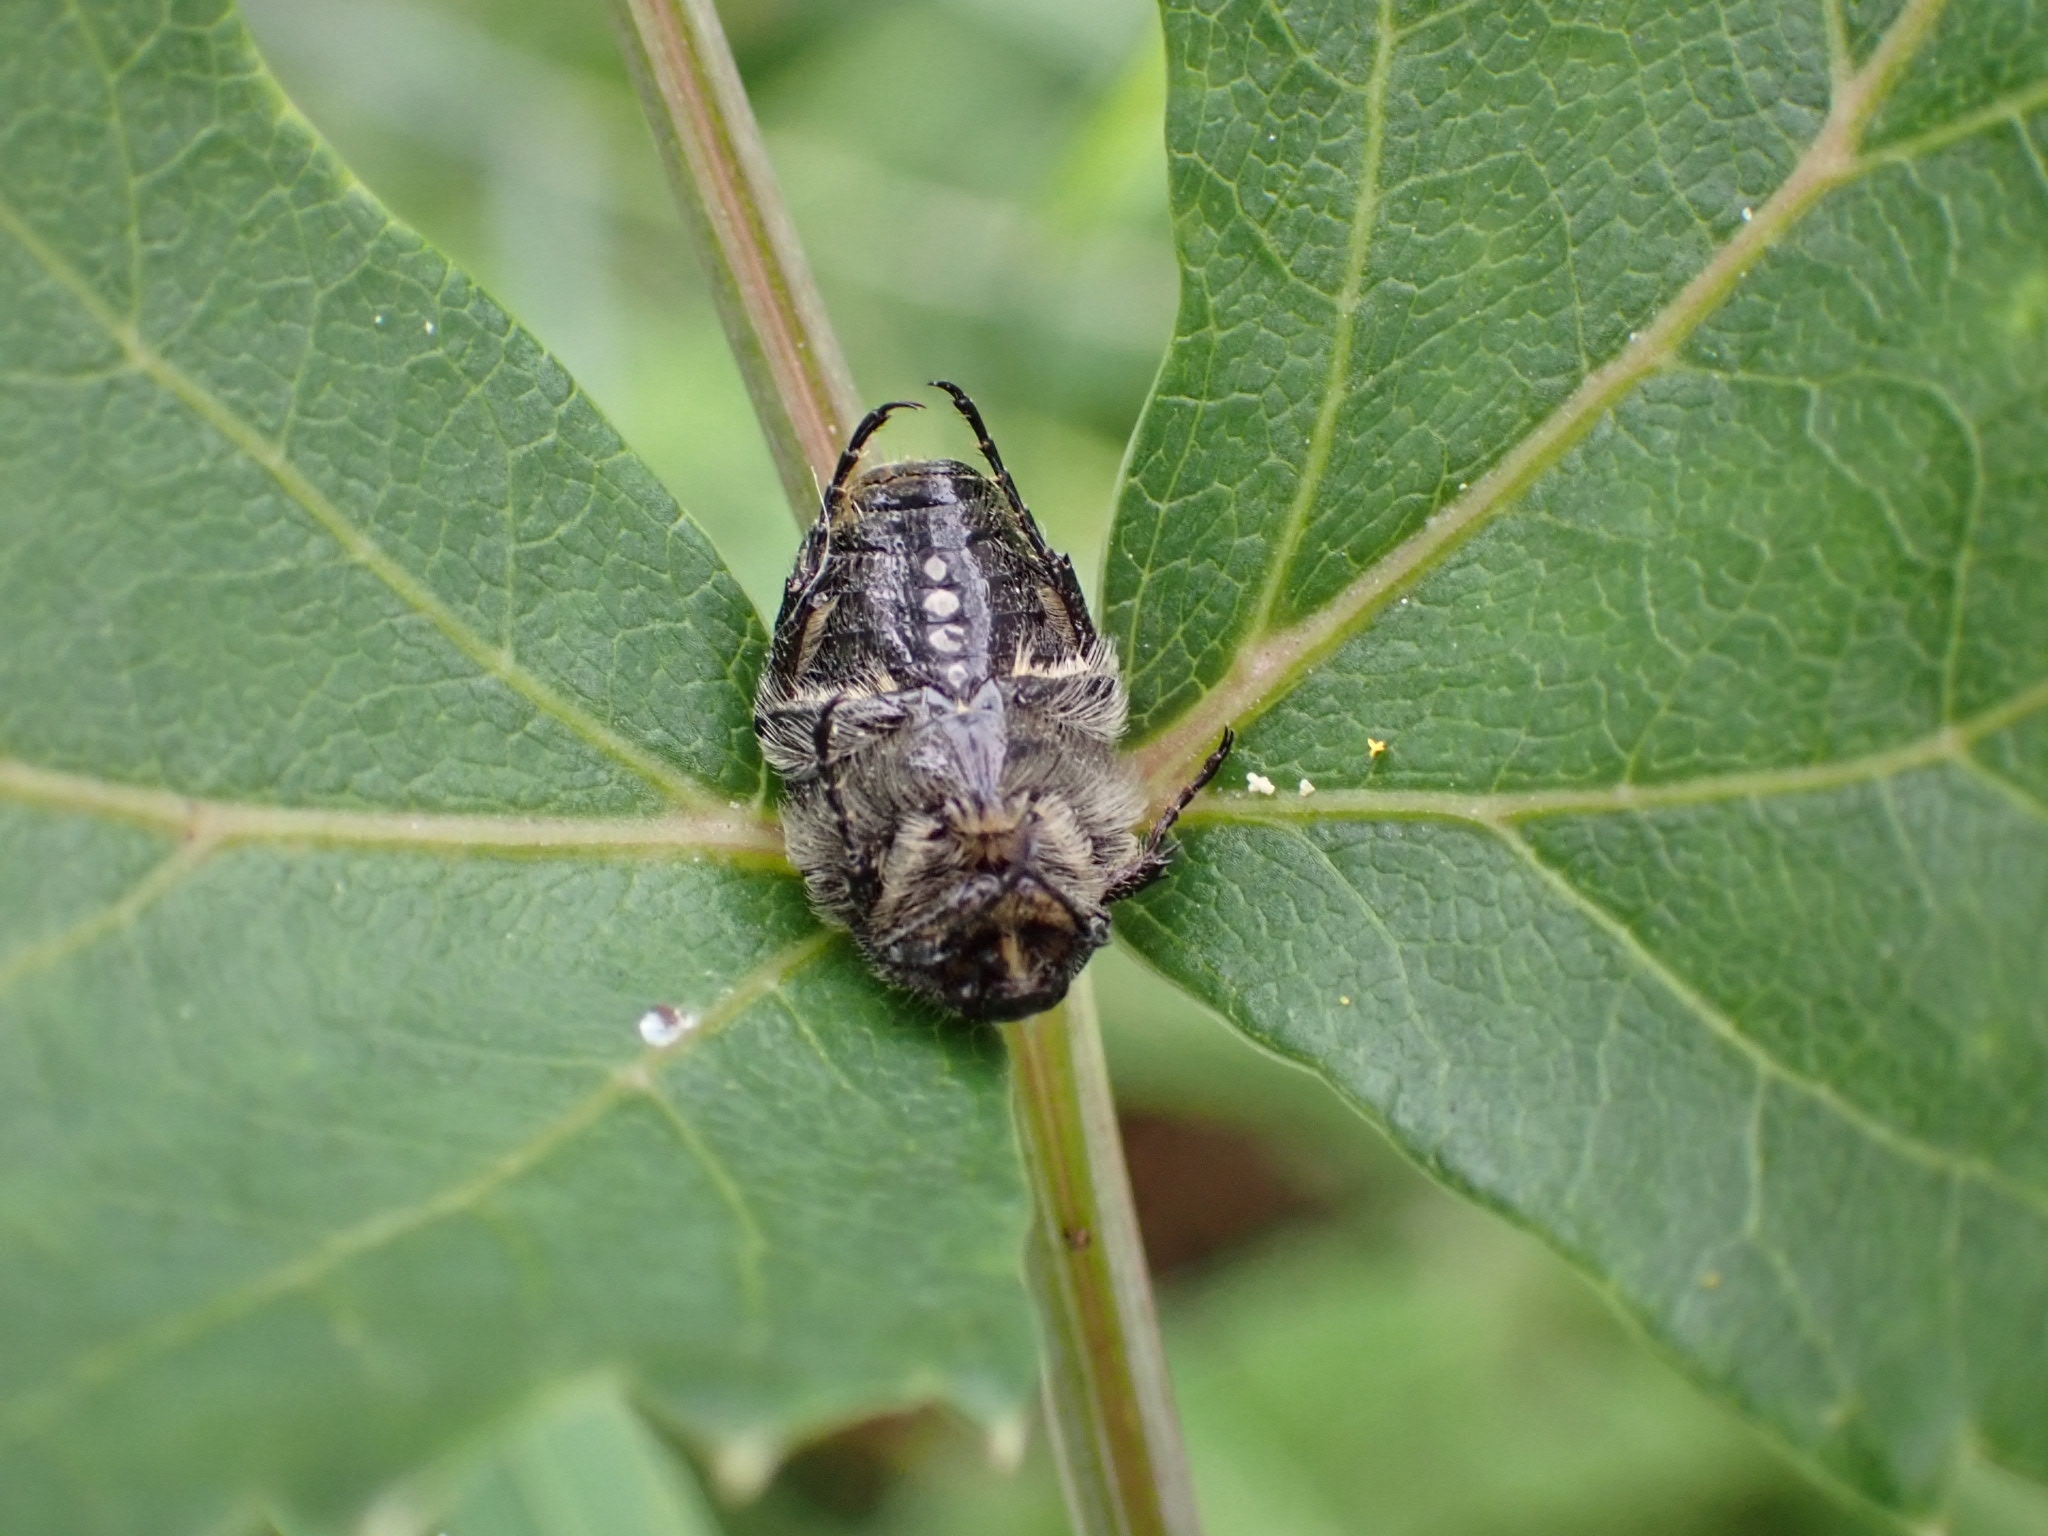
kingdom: Animalia
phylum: Arthropoda
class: Insecta
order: Coleoptera
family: Scarabaeidae
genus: Oxythyrea
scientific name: Oxythyrea funesta
